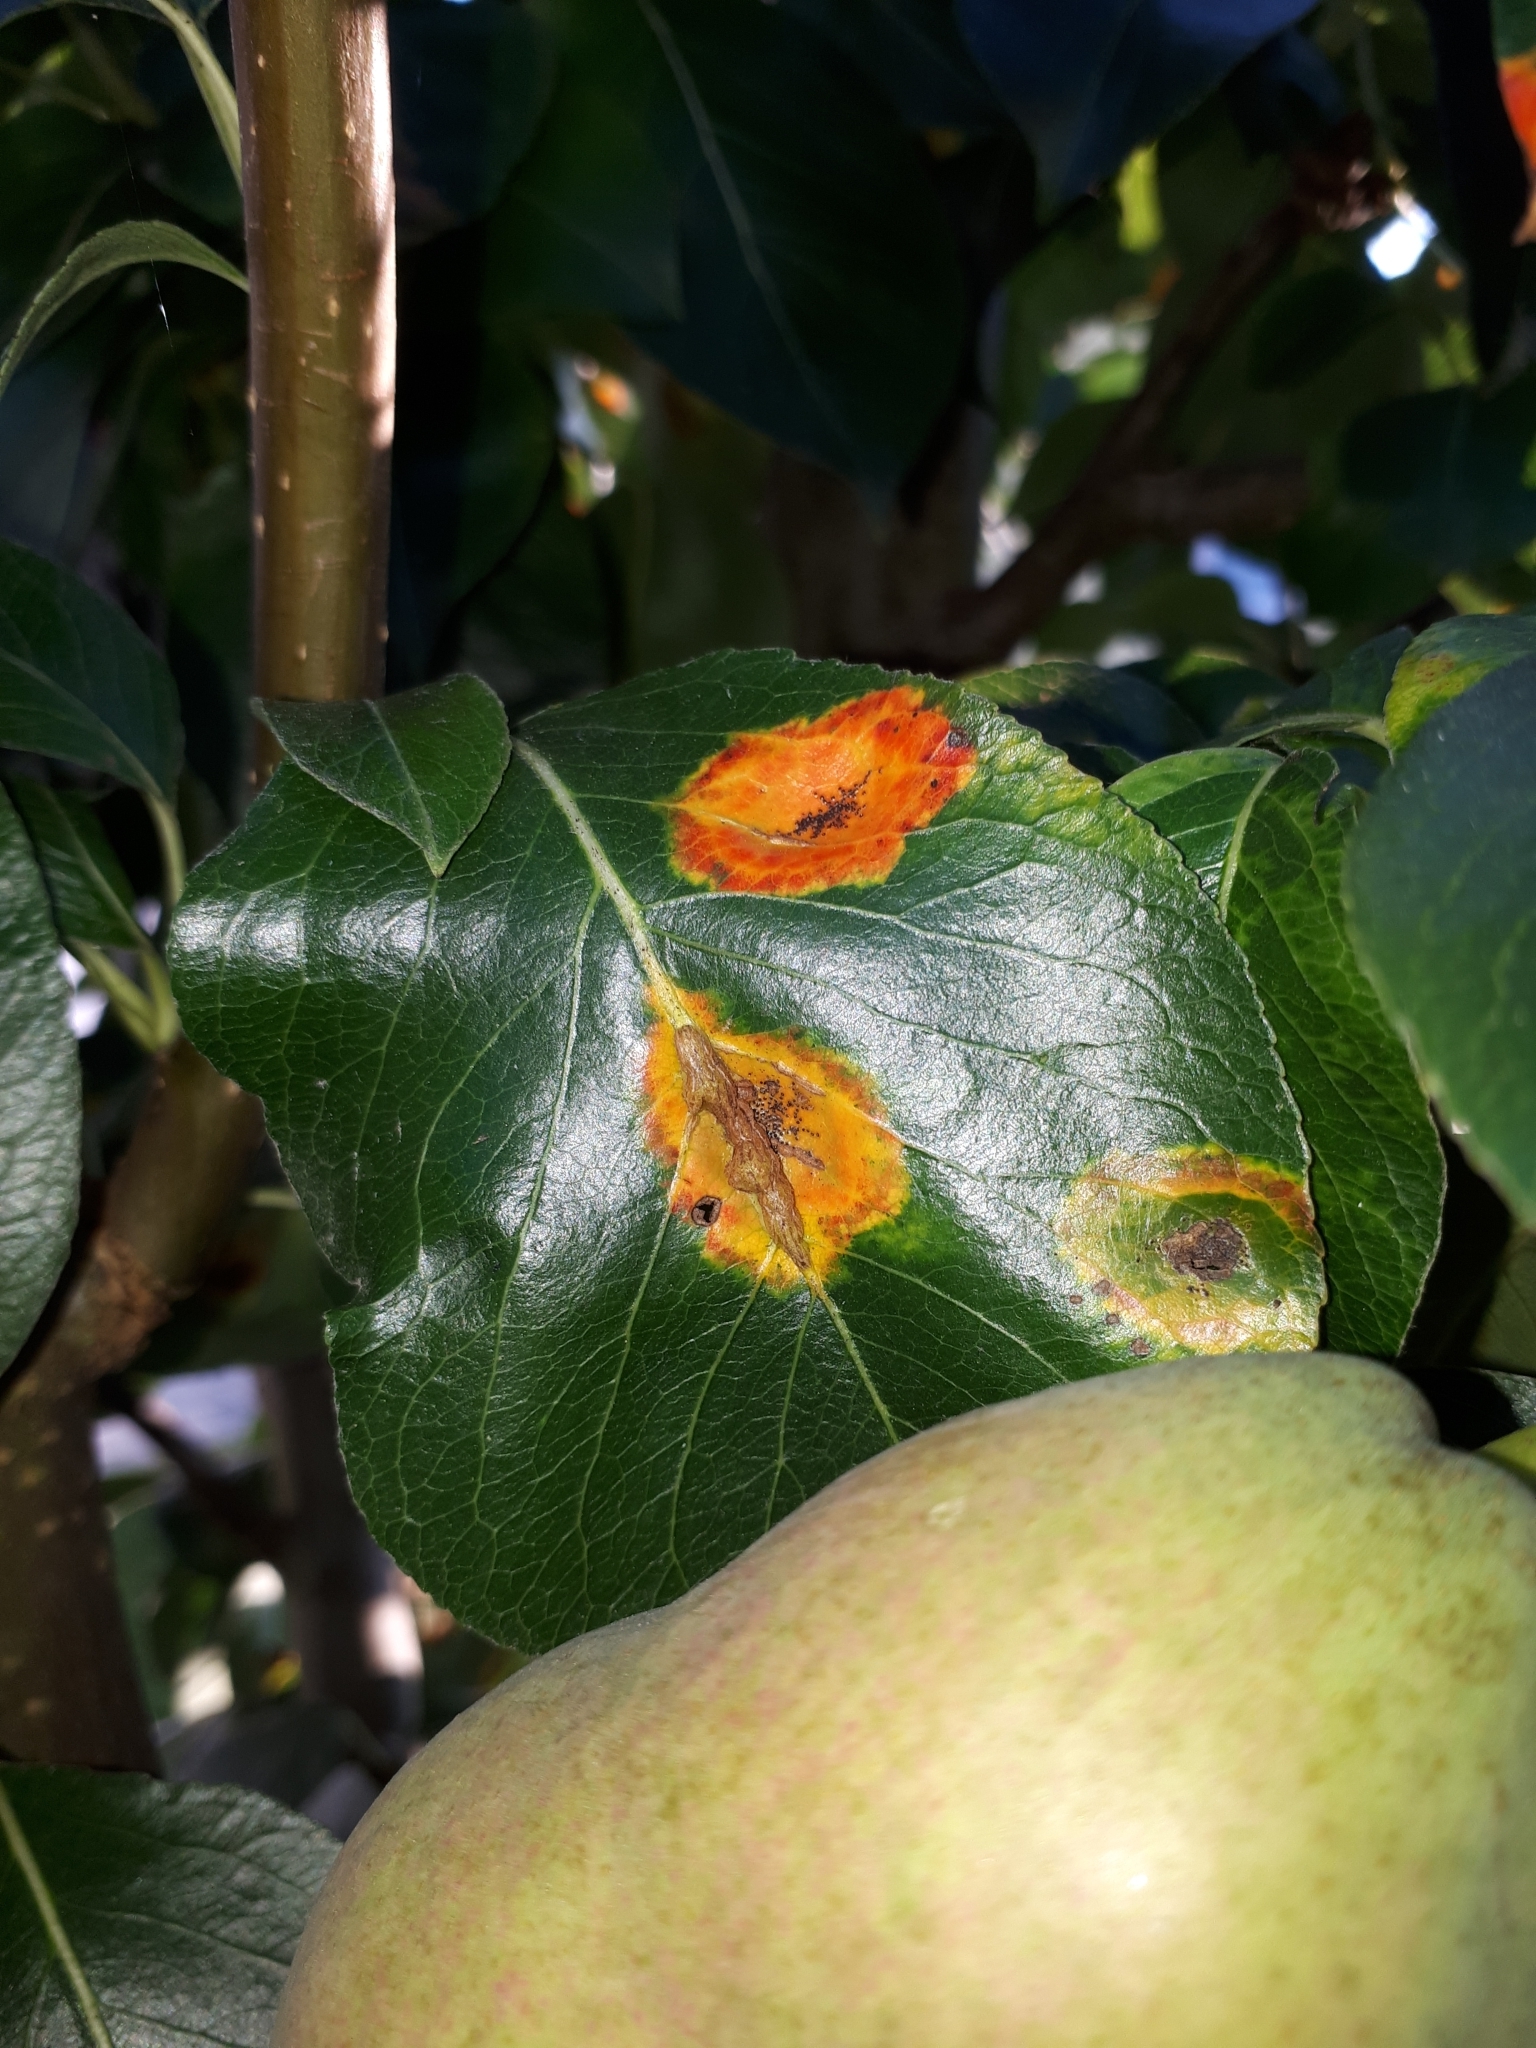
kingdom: Fungi
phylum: Basidiomycota
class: Pucciniomycetes
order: Pucciniales
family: Gymnosporangiaceae
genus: Gymnosporangium
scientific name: Gymnosporangium sabinae
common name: Pear trellis rust fungus
